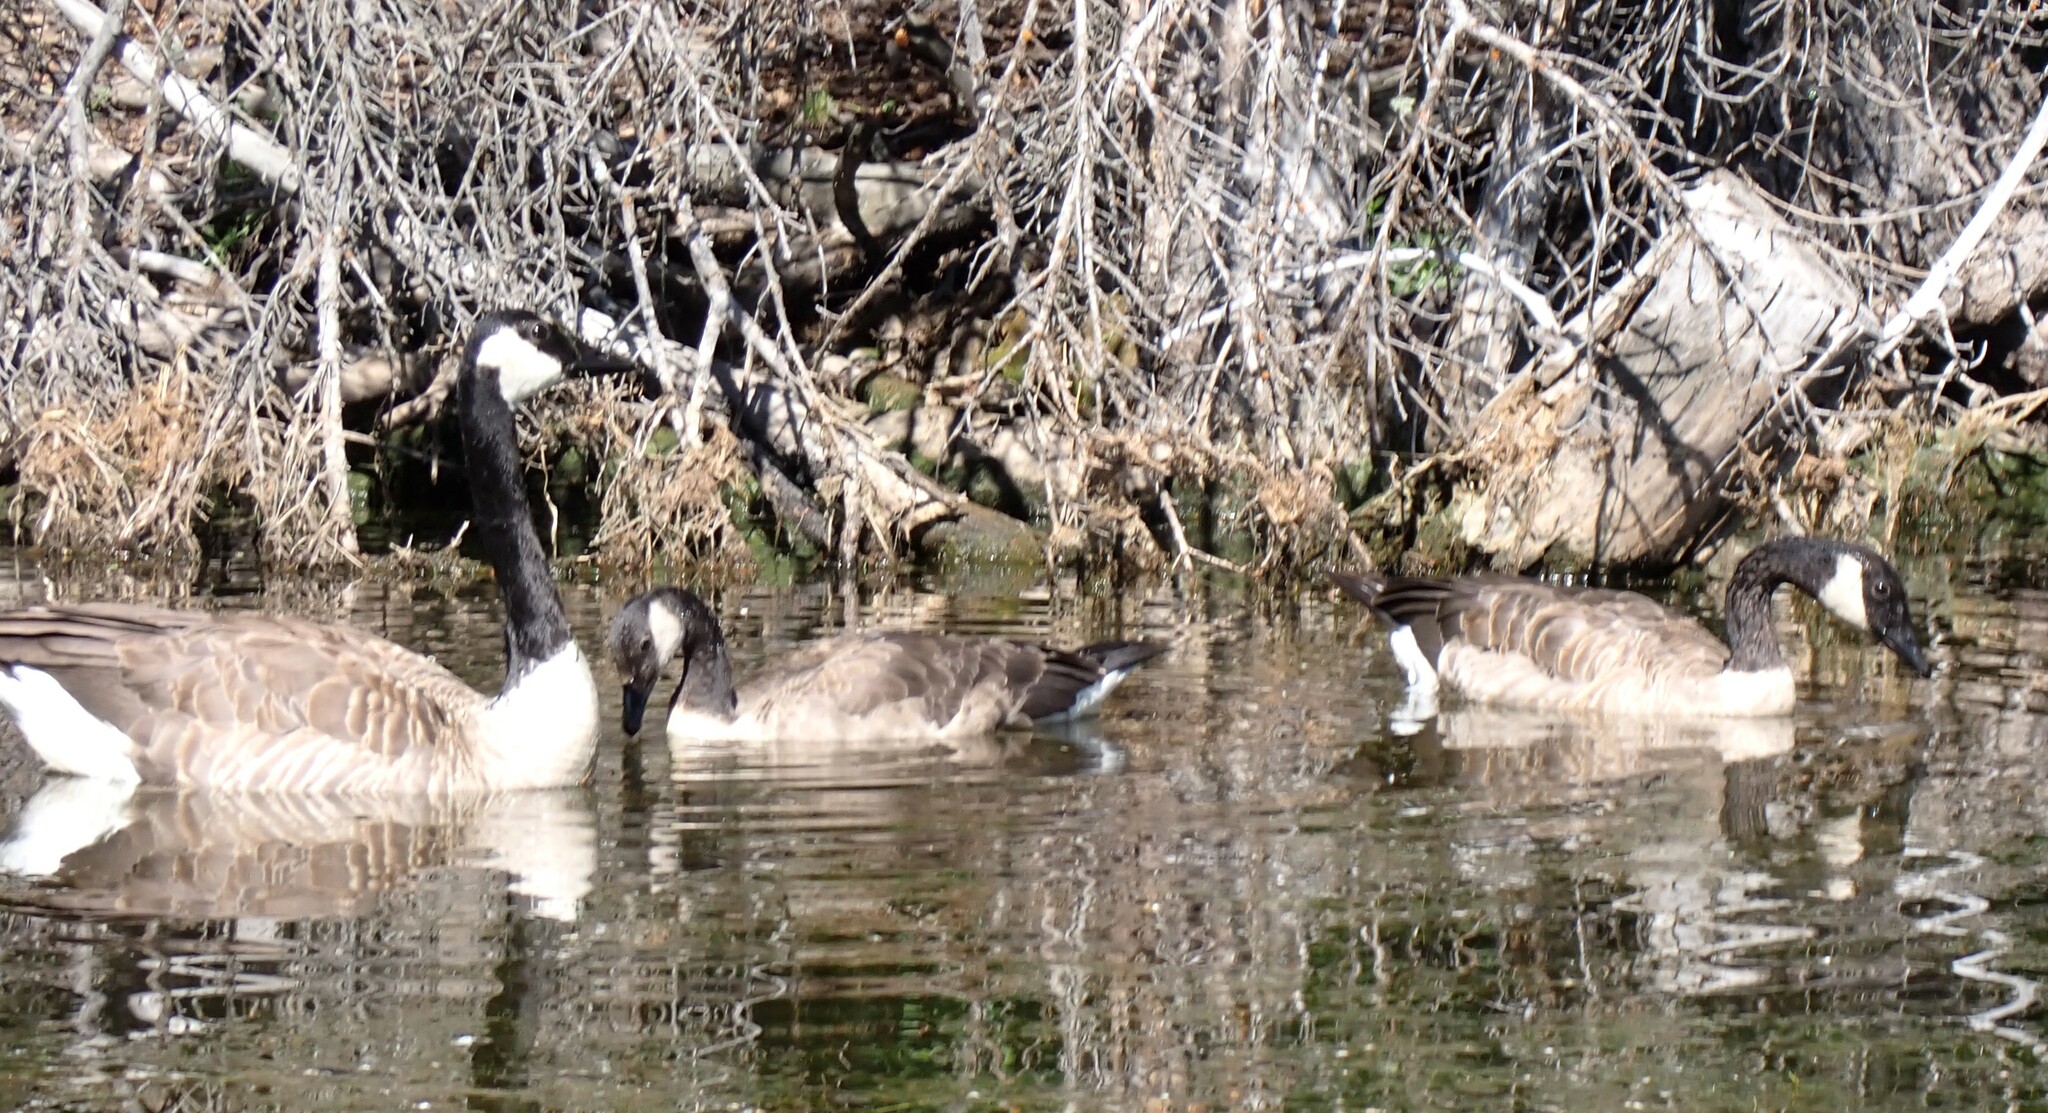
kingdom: Animalia
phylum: Chordata
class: Aves
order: Anseriformes
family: Anatidae
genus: Branta
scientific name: Branta canadensis
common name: Canada goose
